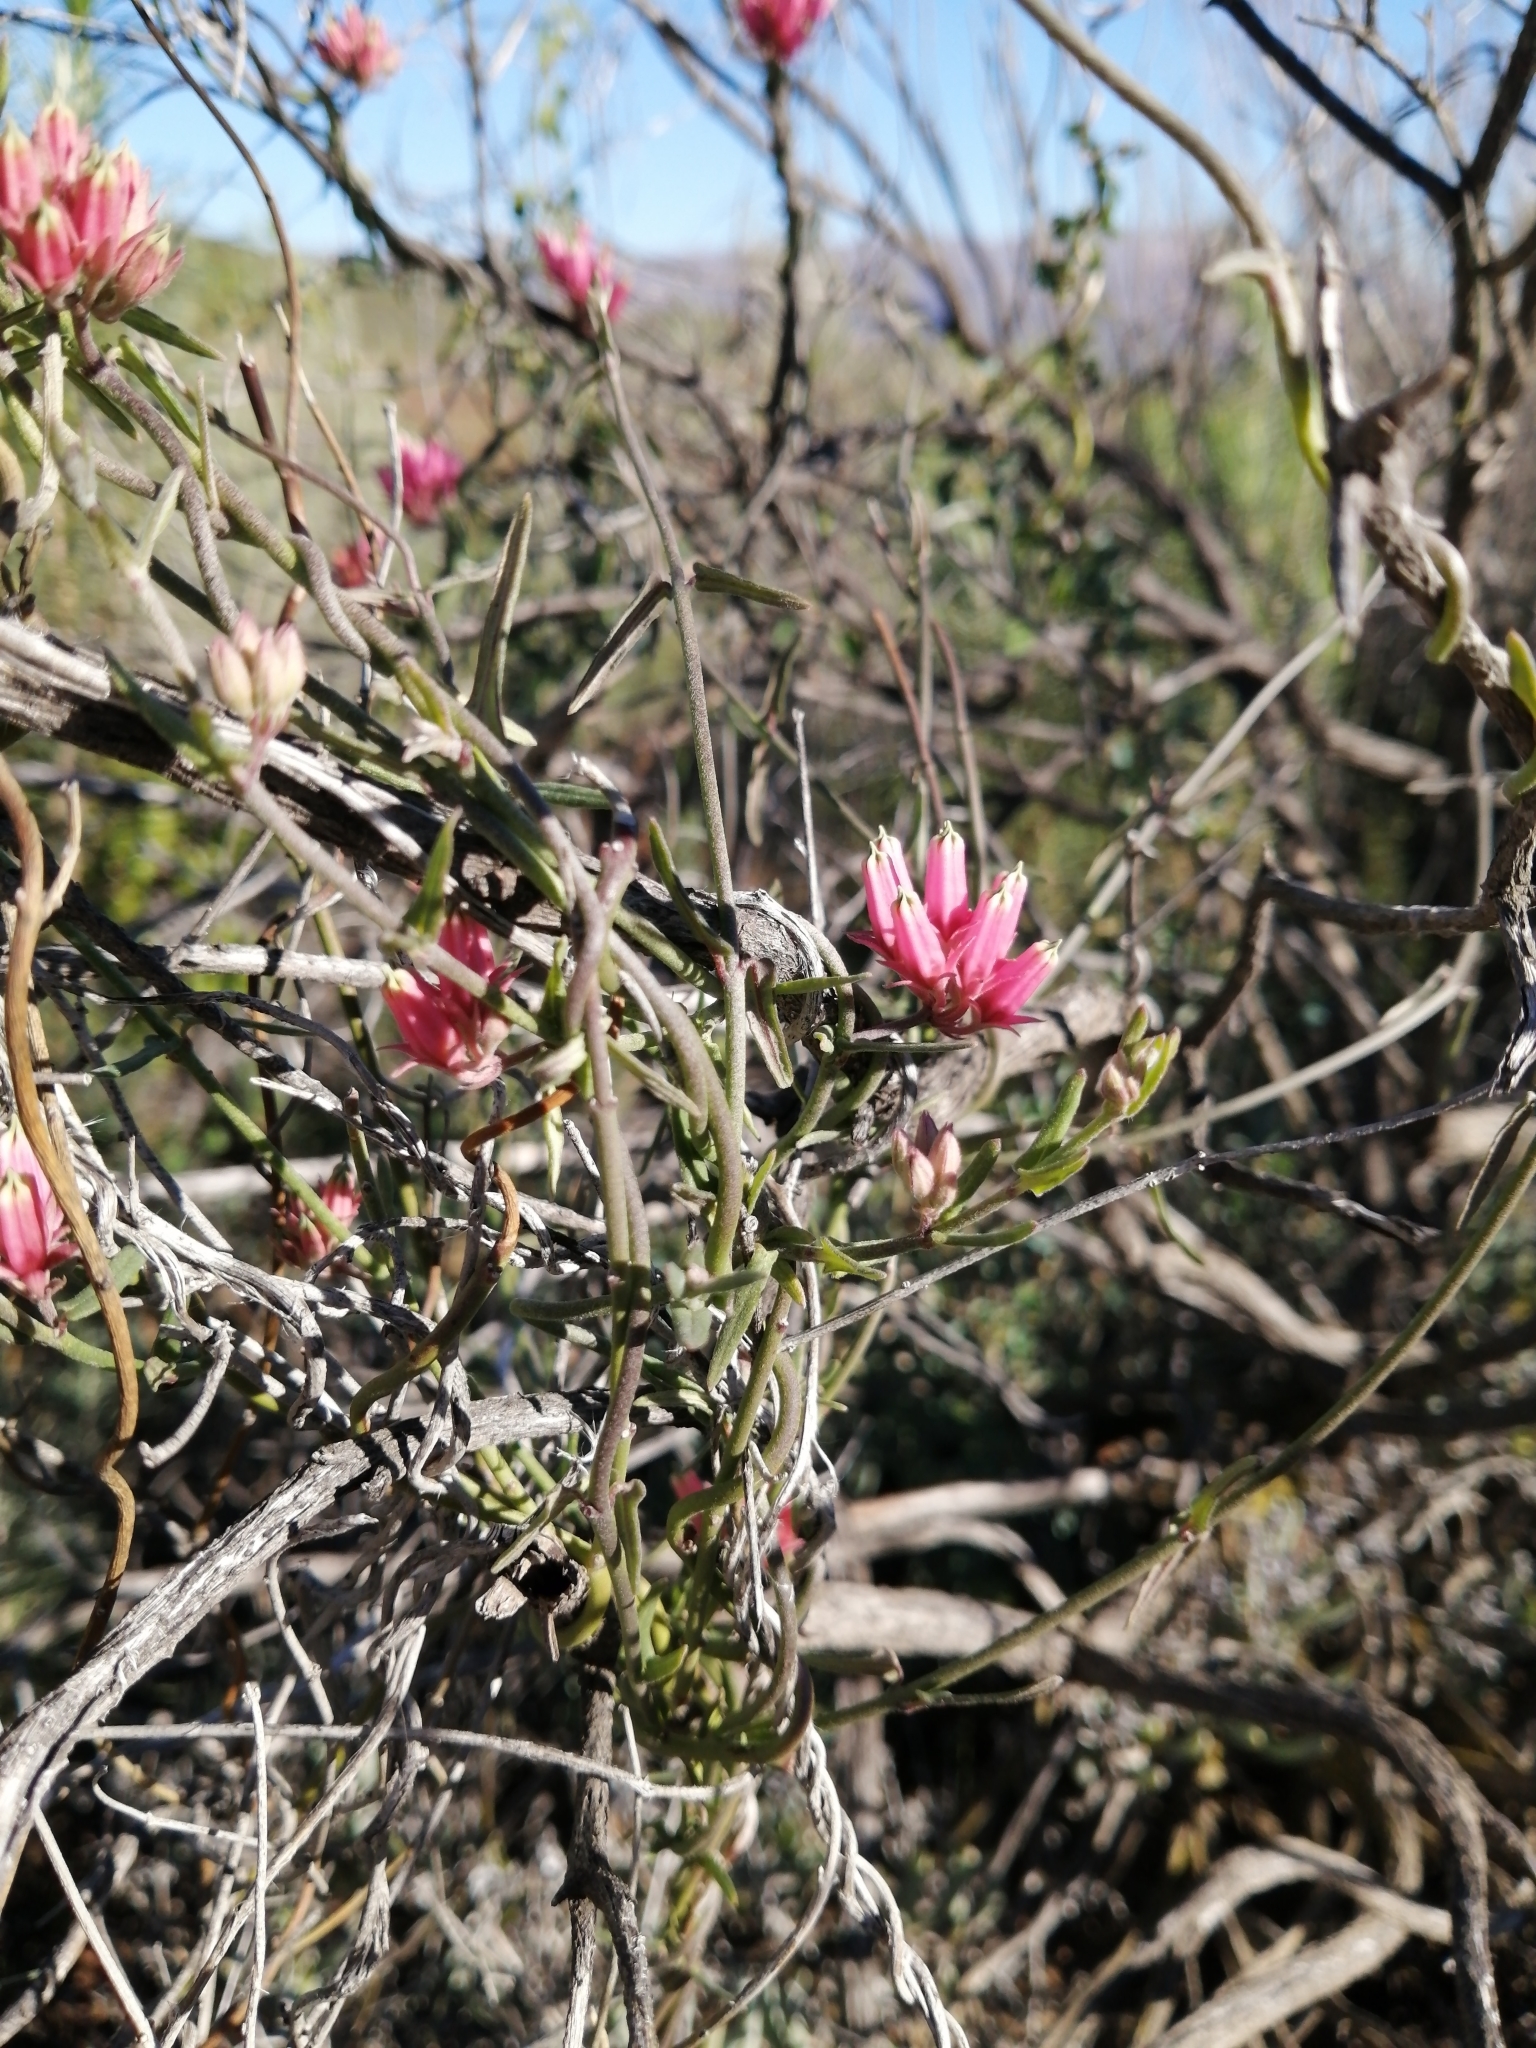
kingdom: Plantae
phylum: Tracheophyta
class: Magnoliopsida
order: Gentianales
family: Apocynaceae
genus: Microloma
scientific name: Microloma sagittatum
